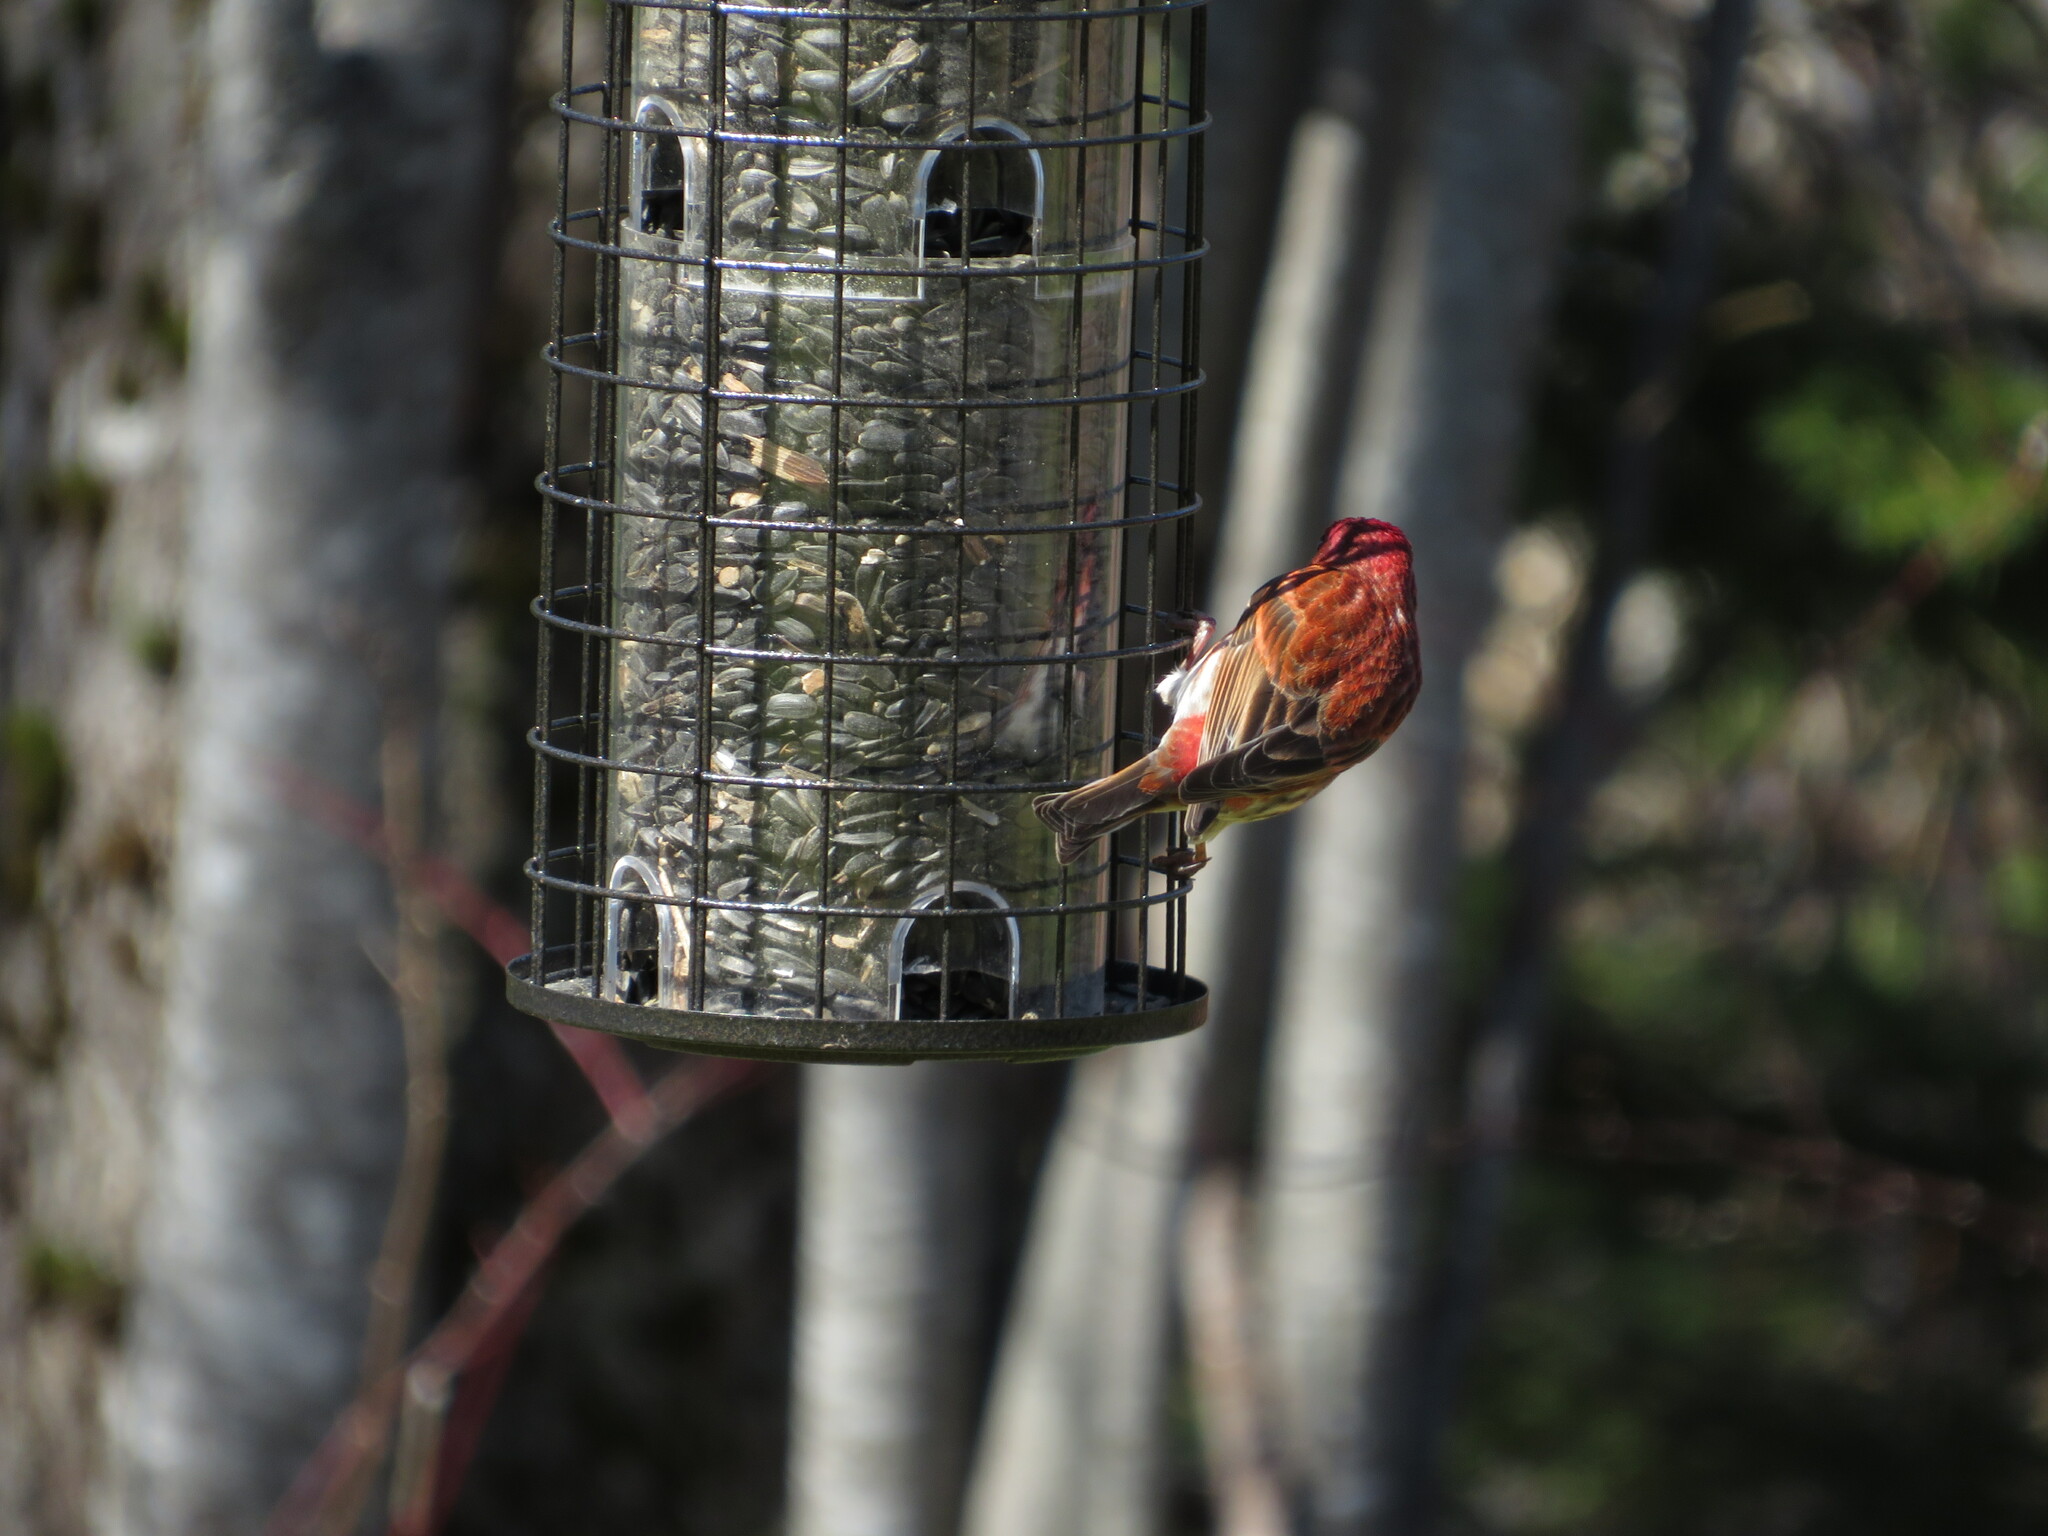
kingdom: Animalia
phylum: Chordata
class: Aves
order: Passeriformes
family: Fringillidae
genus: Haemorhous
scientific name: Haemorhous purpureus
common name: Purple finch
